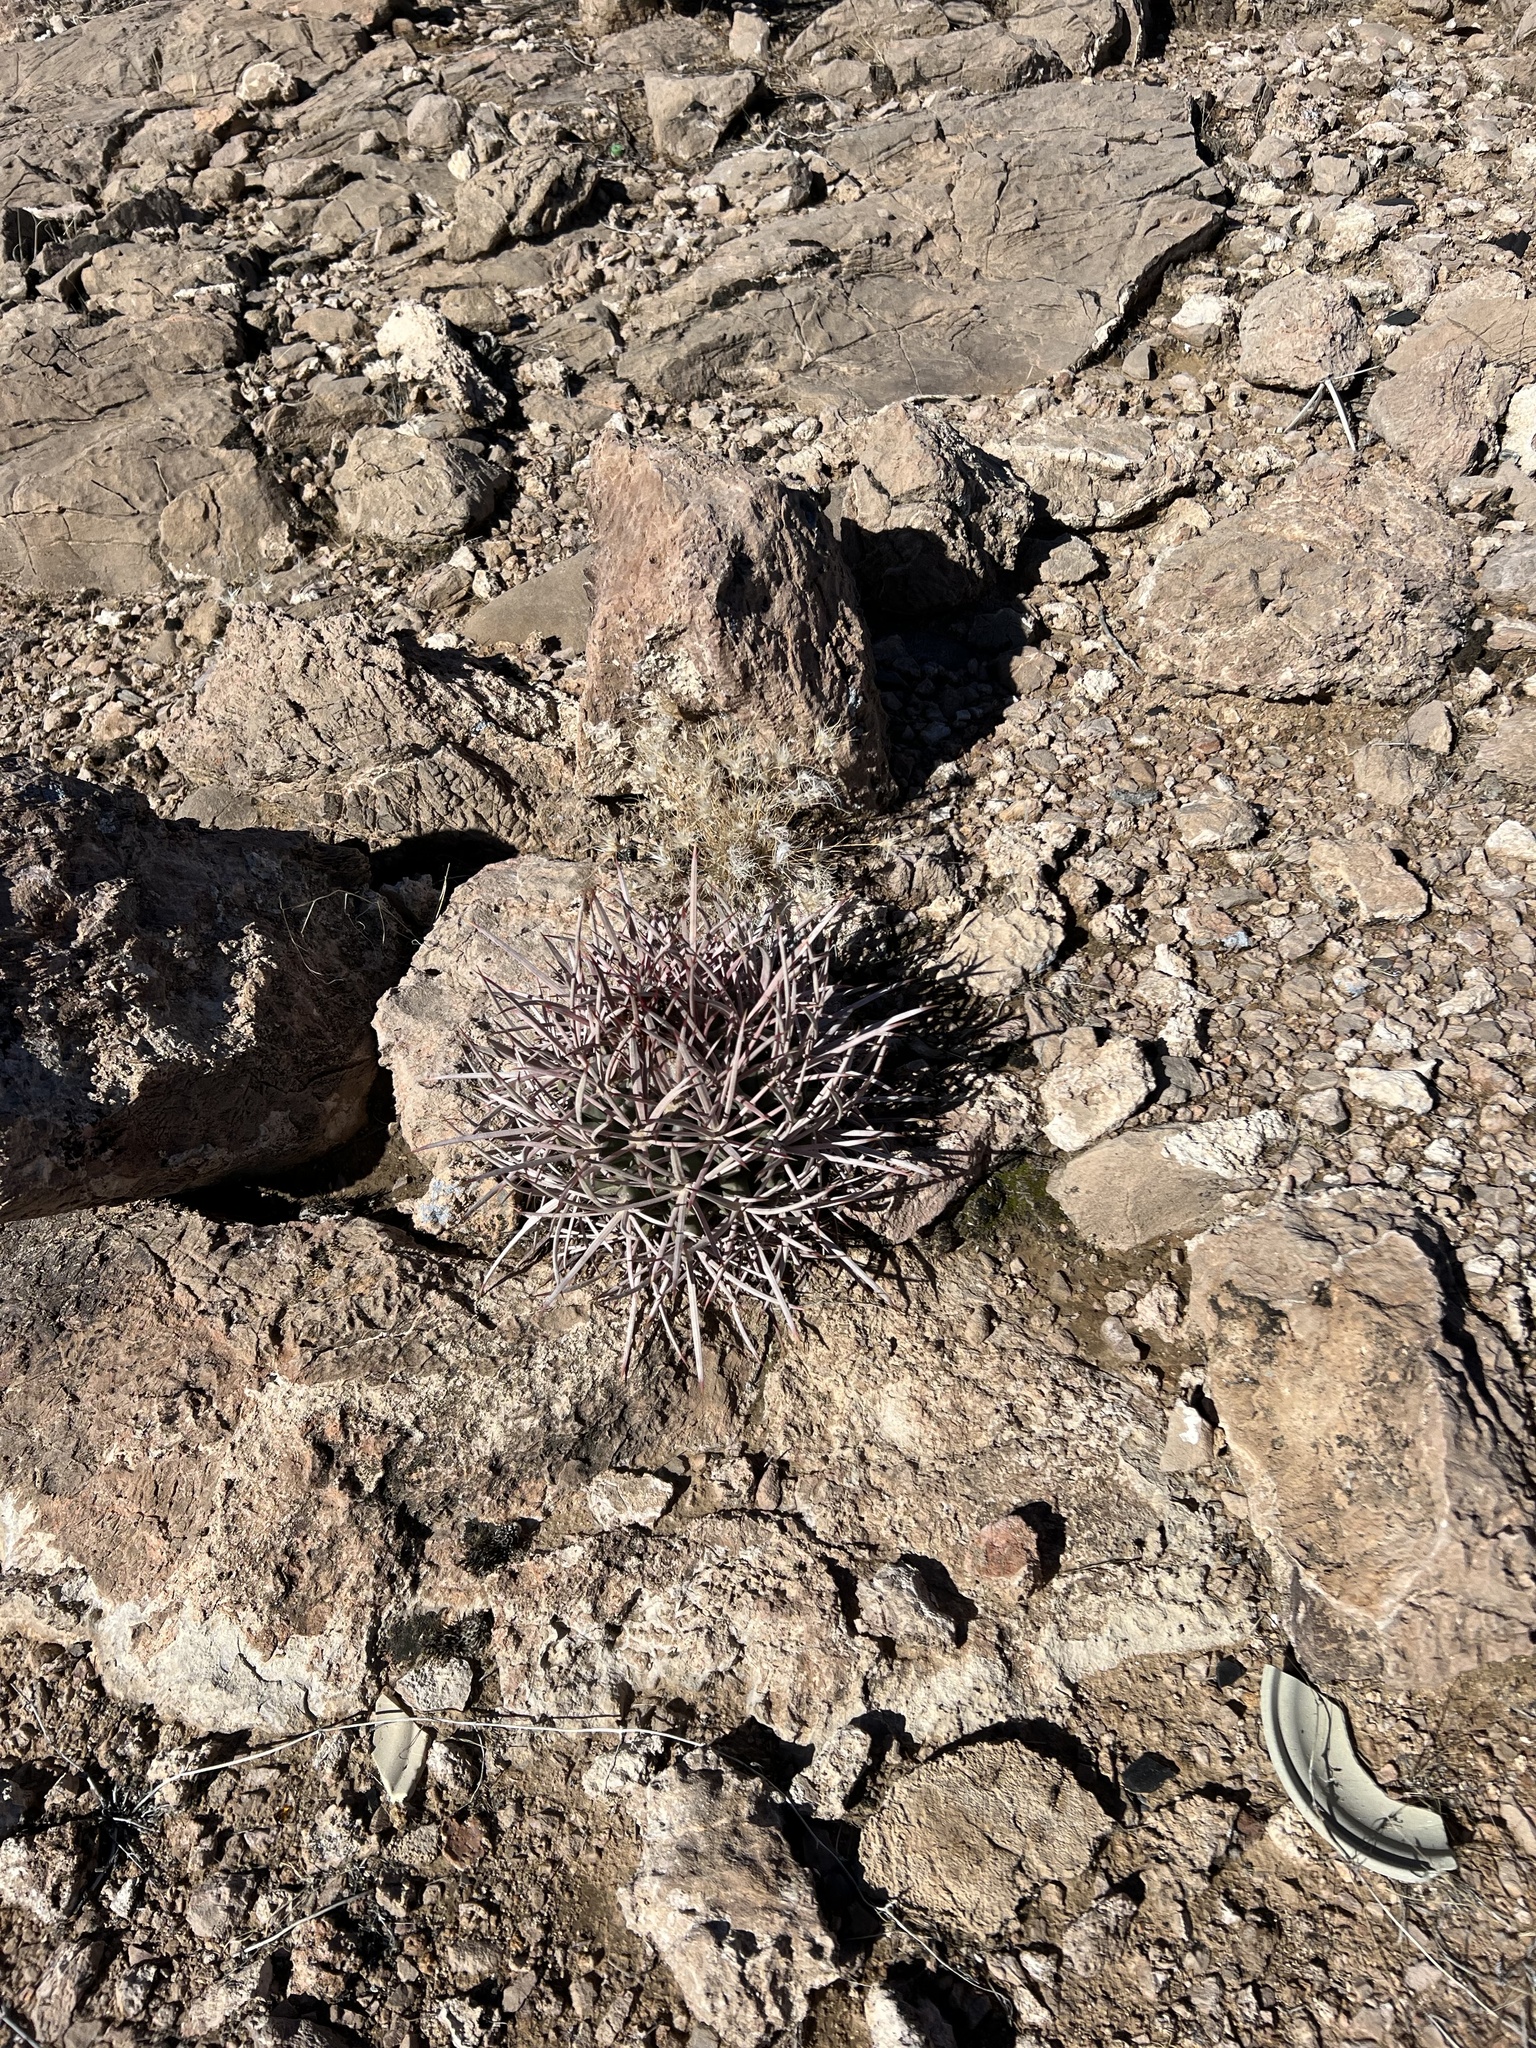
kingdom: Plantae
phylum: Tracheophyta
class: Magnoliopsida
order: Caryophyllales
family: Cactaceae
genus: Echinocactus
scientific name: Echinocactus polycephalus
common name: Cottontop cactus
